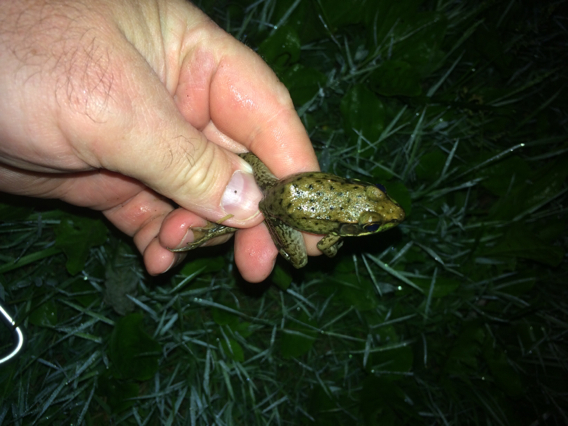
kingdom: Animalia
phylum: Chordata
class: Amphibia
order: Anura
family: Ranidae
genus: Lithobates
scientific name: Lithobates clamitans
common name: Green frog
